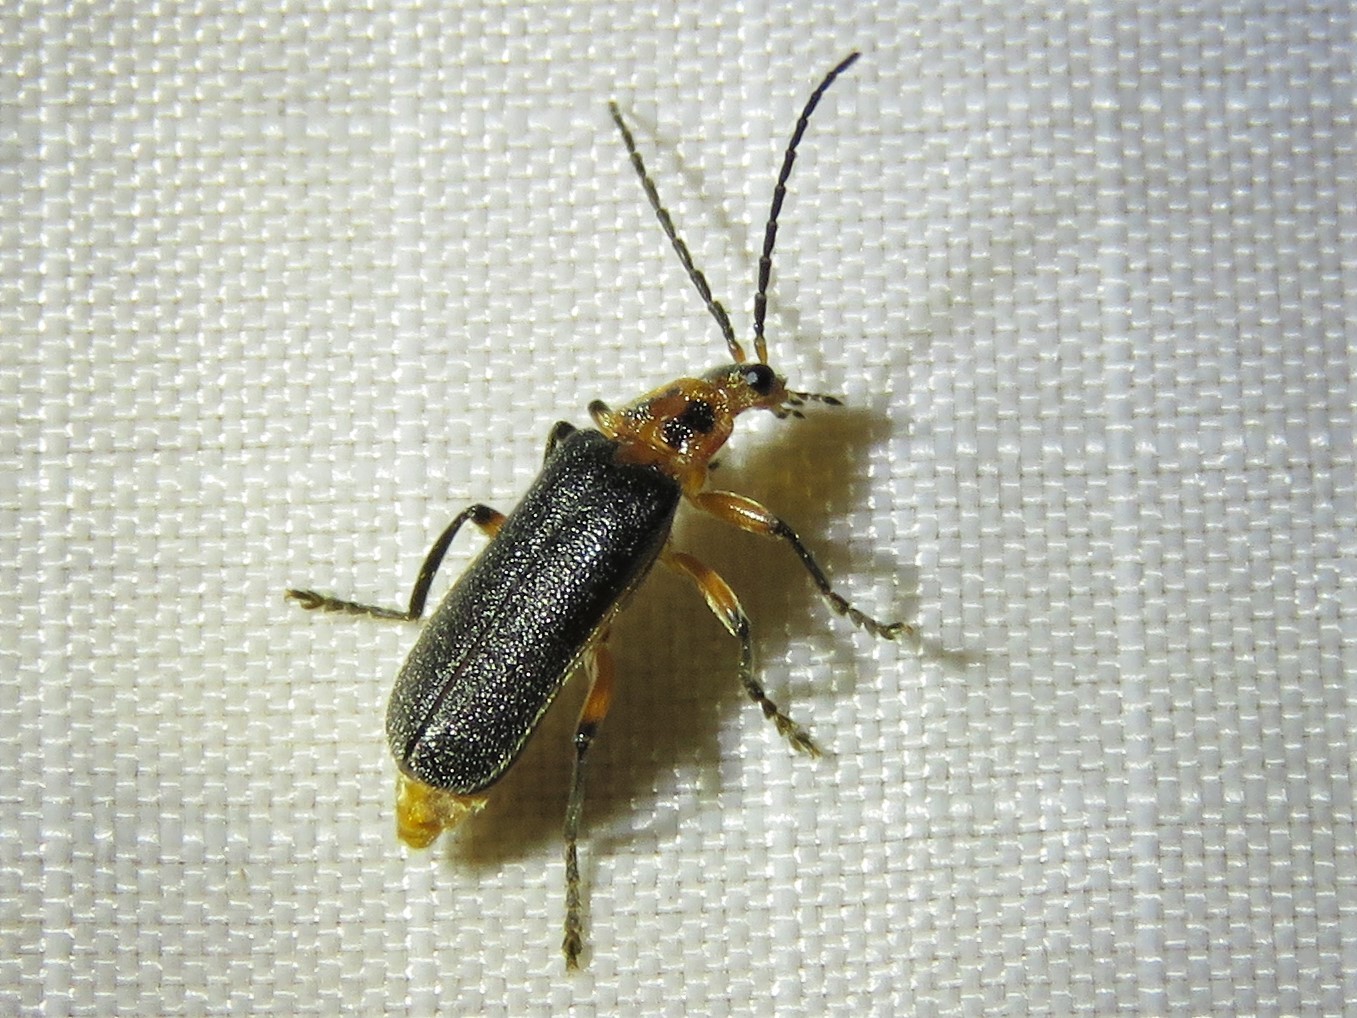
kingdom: Animalia
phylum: Arthropoda
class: Insecta
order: Coleoptera
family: Cantharidae
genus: Atalantycha
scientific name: Atalantycha bilineata
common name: Two-lined leatherwing
